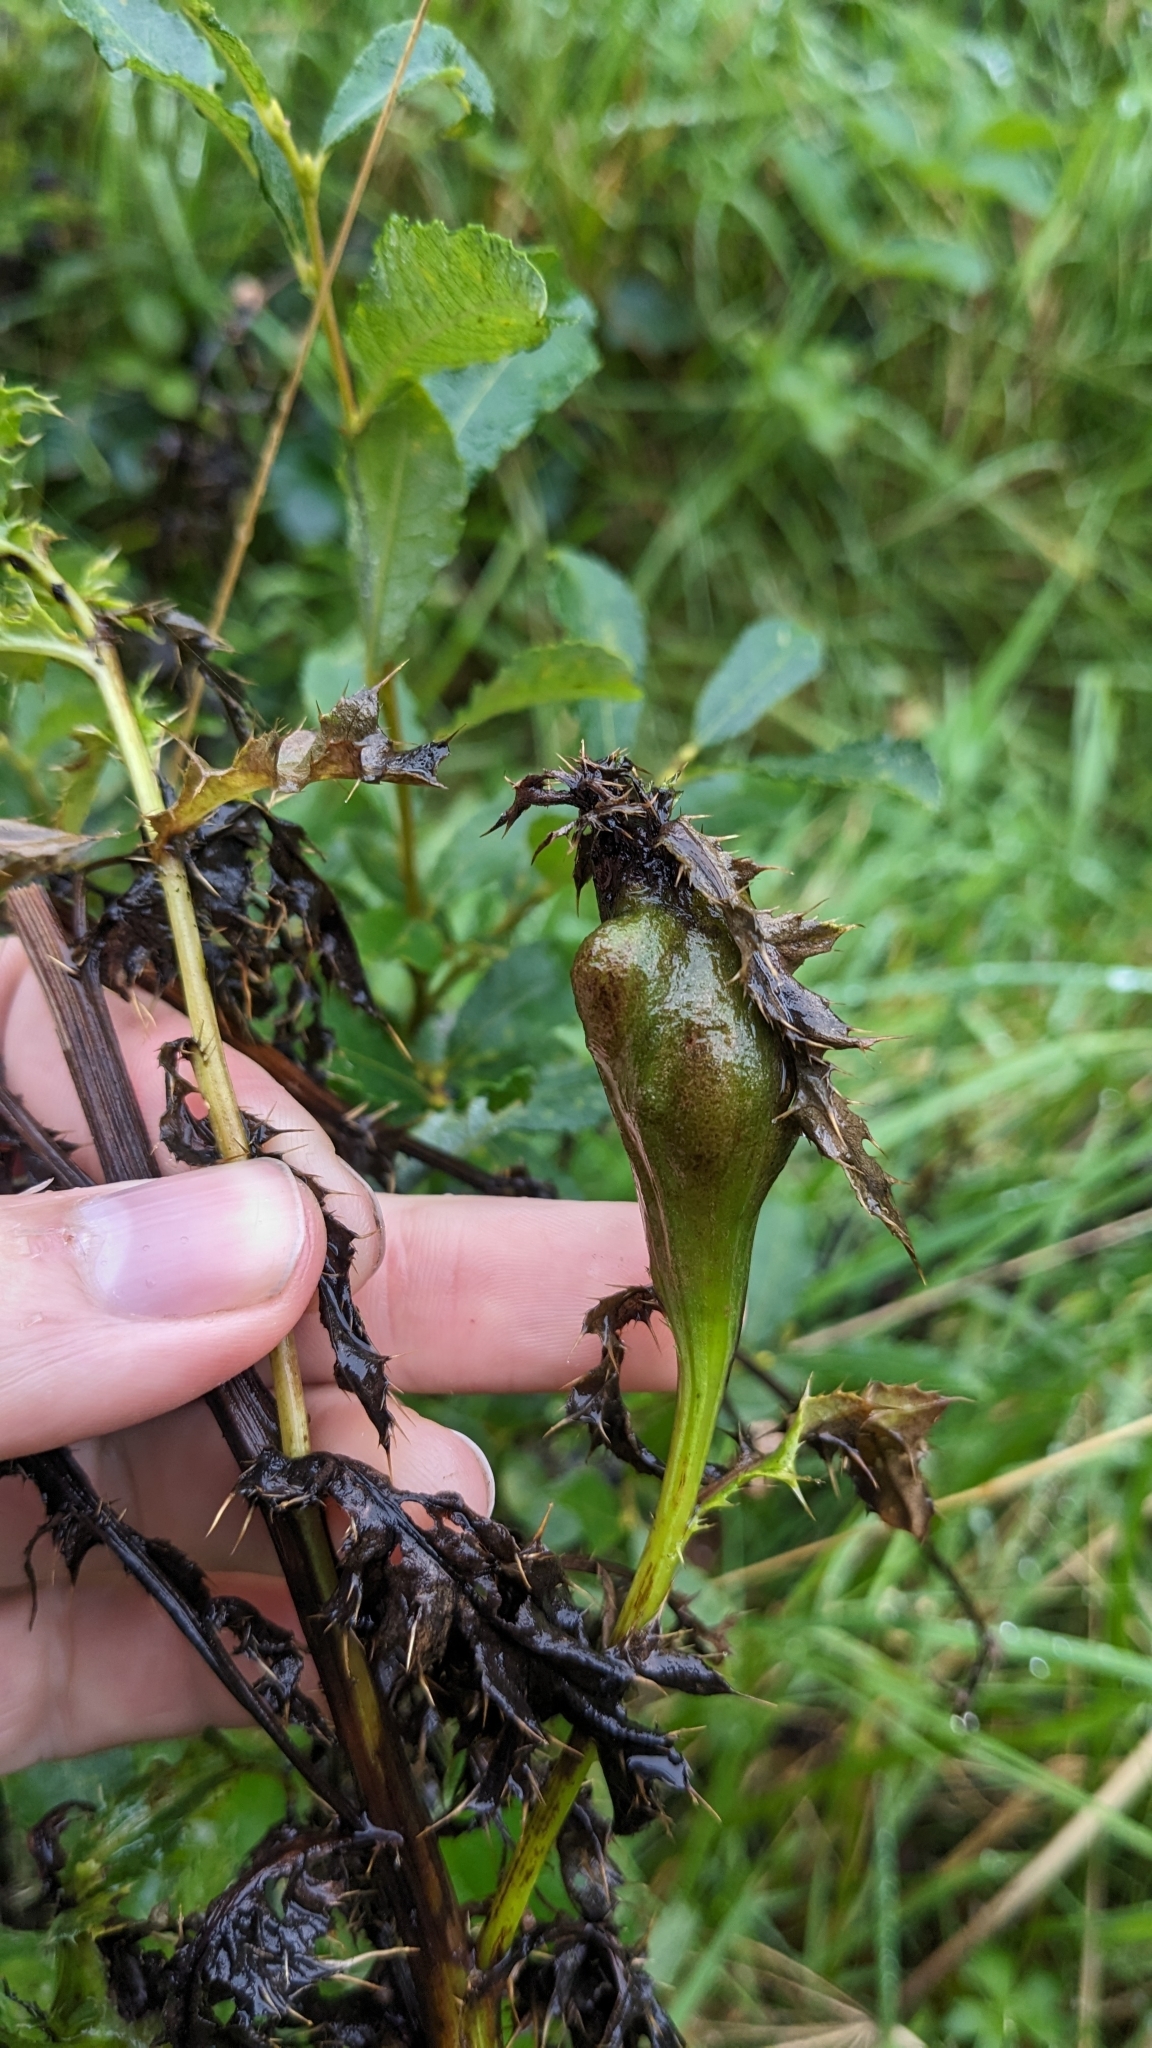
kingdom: Animalia
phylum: Arthropoda
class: Insecta
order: Diptera
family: Tephritidae
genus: Urophora
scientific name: Urophora cardui
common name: Fruit fly
